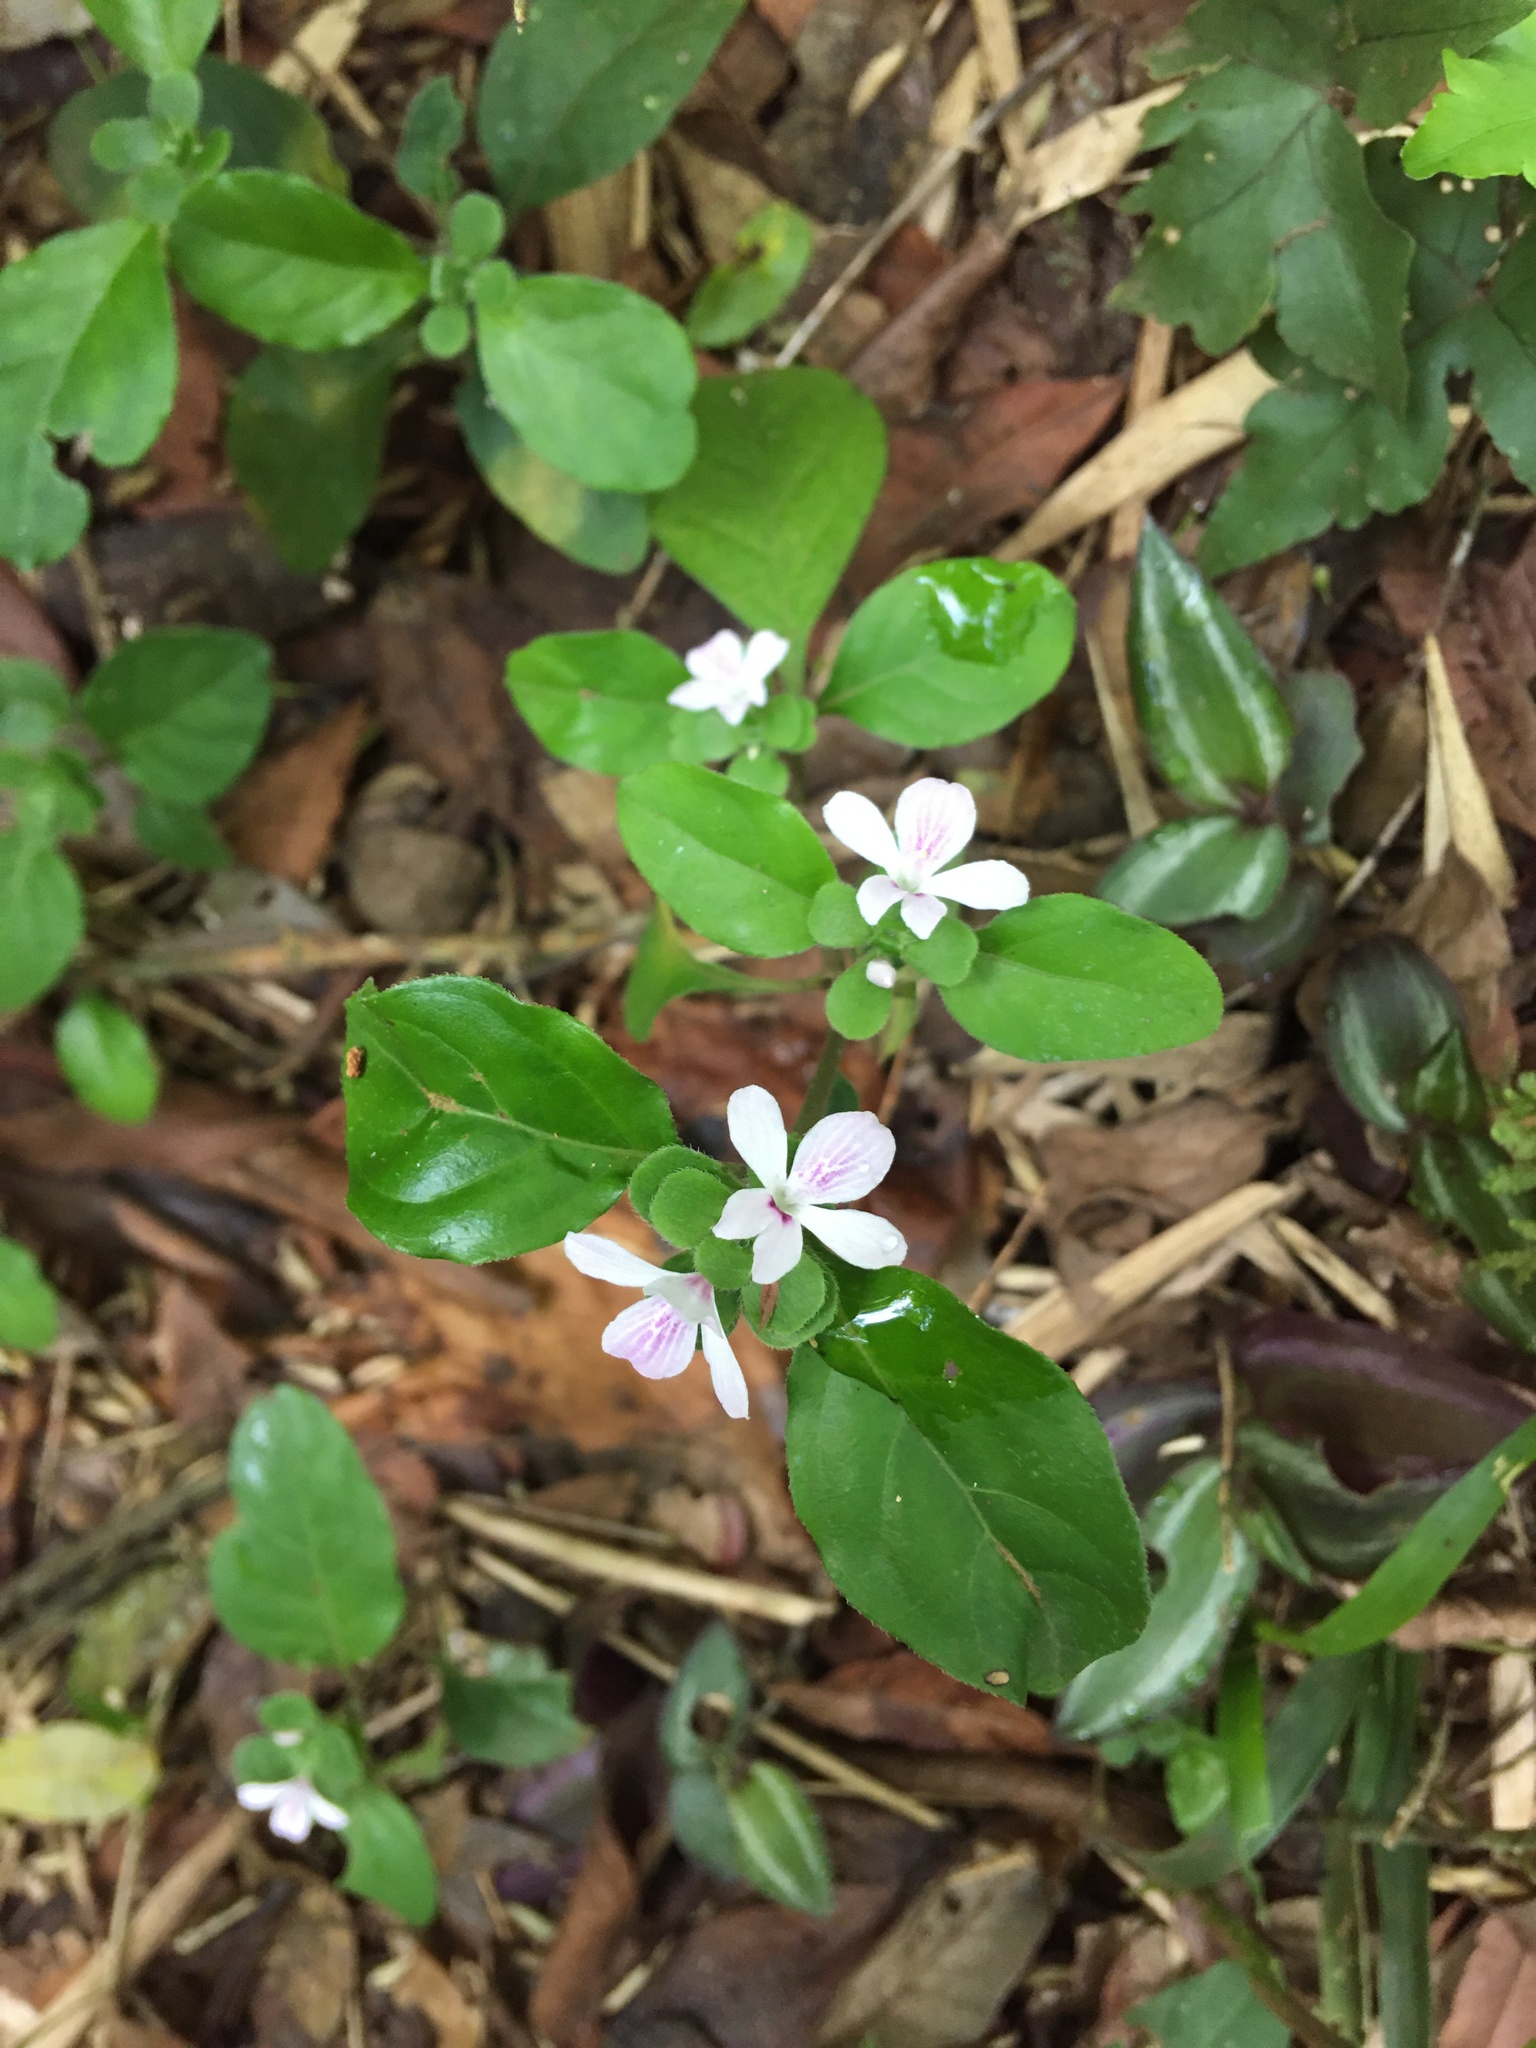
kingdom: Plantae
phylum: Tracheophyta
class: Magnoliopsida
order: Lamiales
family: Acanthaceae
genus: Stenandrium
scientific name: Stenandrium mandioccanum
